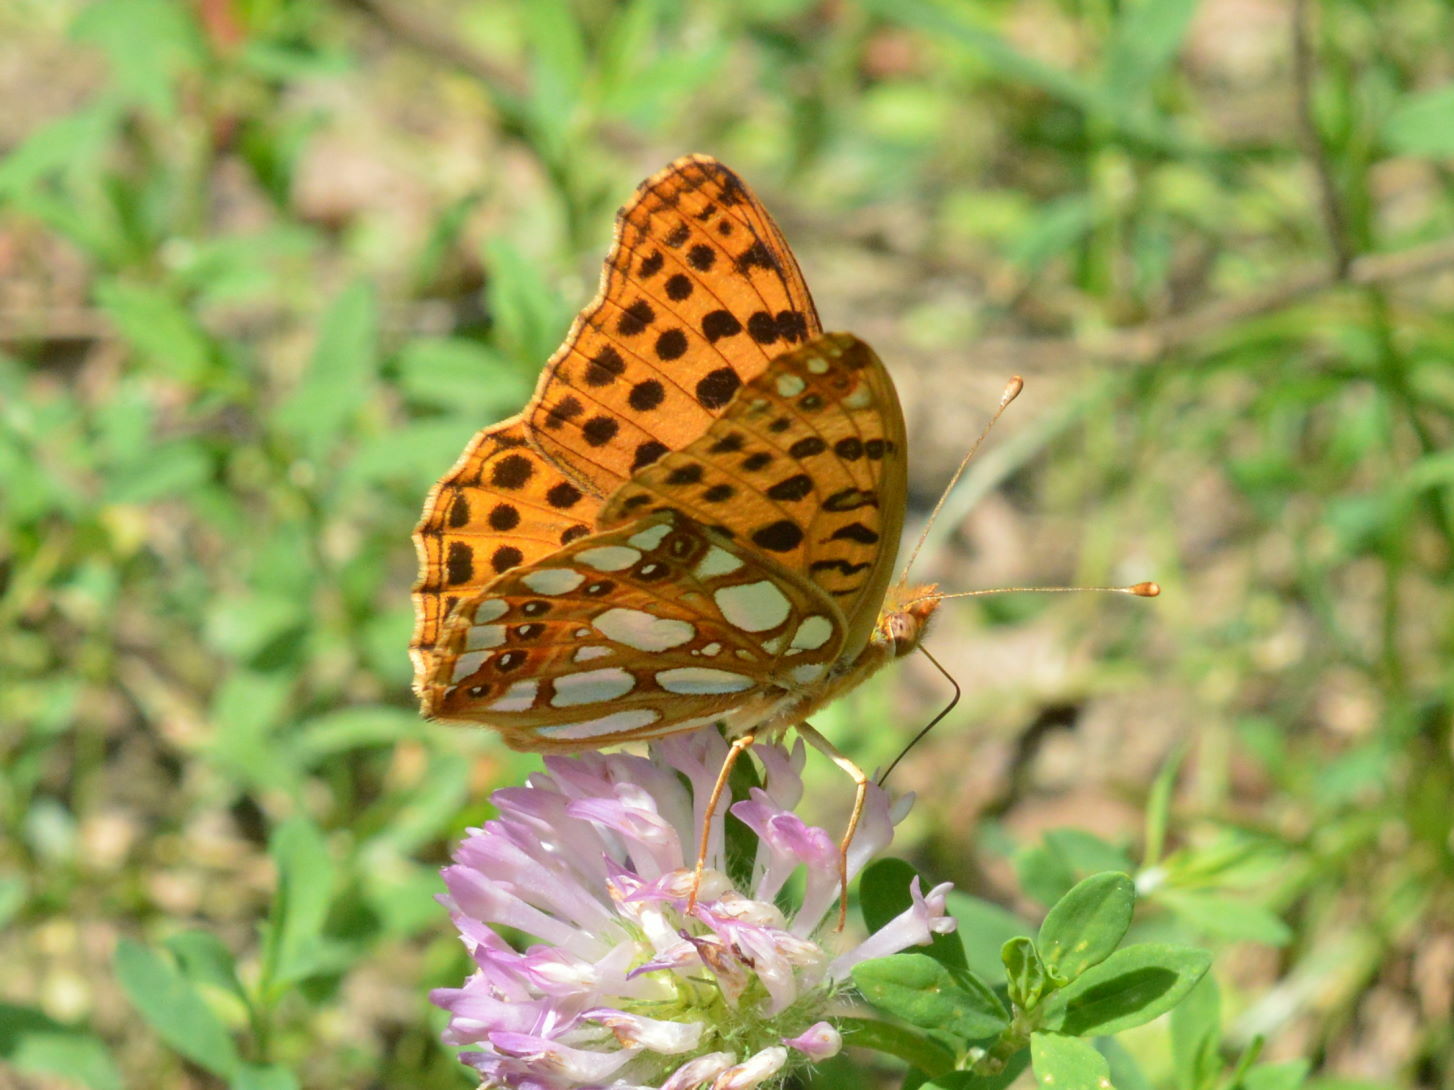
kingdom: Animalia
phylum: Arthropoda
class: Insecta
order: Lepidoptera
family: Nymphalidae
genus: Issoria
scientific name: Issoria lathonia
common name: Queen of spain fritillary
